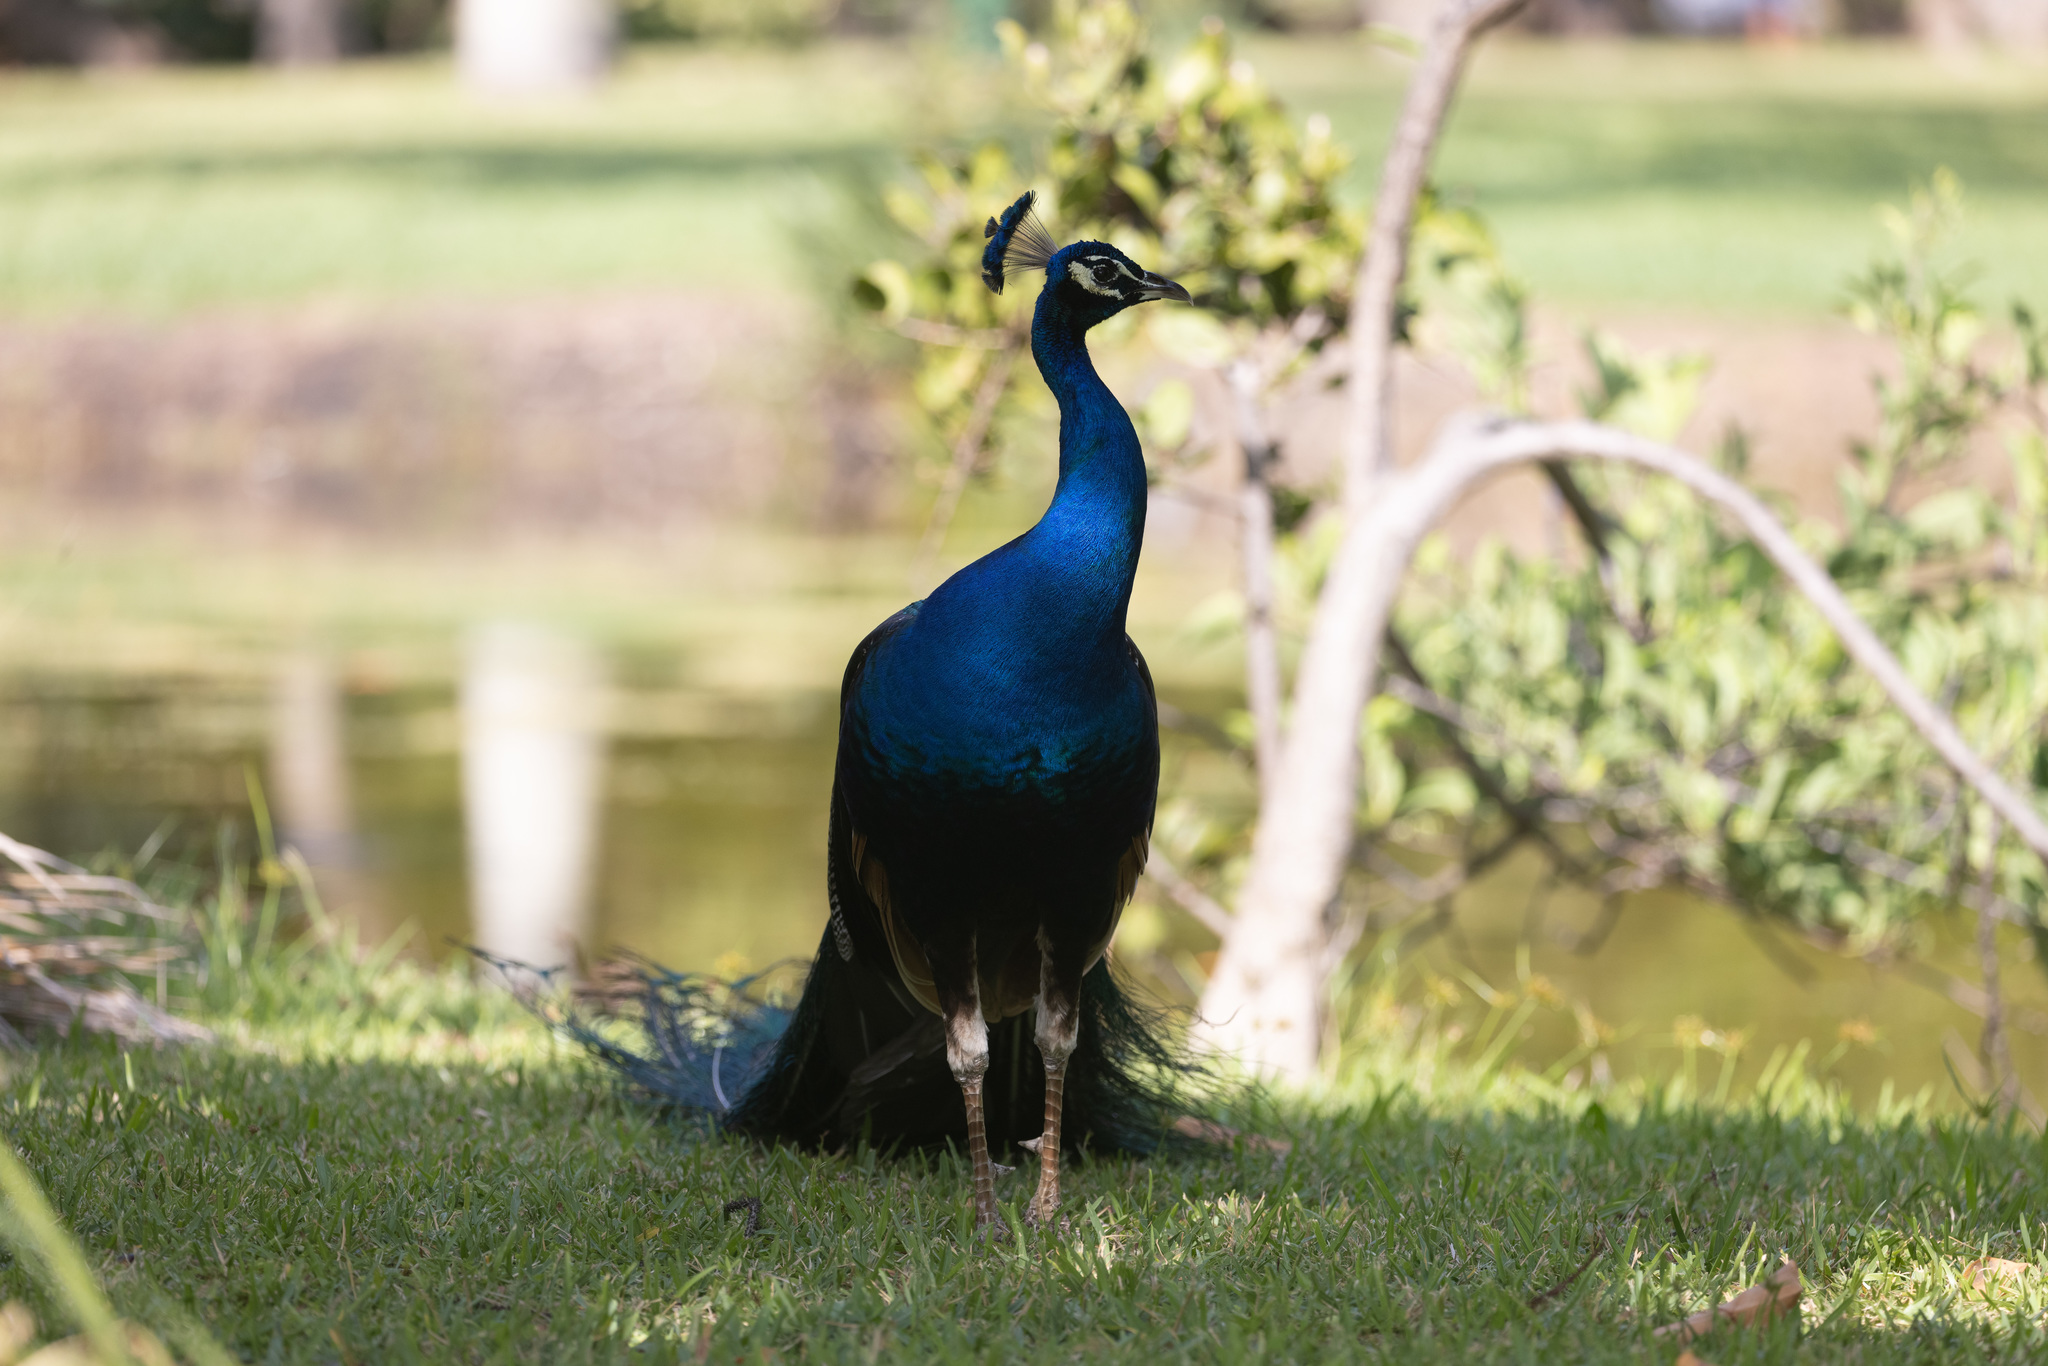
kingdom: Animalia
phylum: Chordata
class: Aves
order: Galliformes
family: Phasianidae
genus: Pavo
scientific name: Pavo cristatus
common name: Indian peafowl
